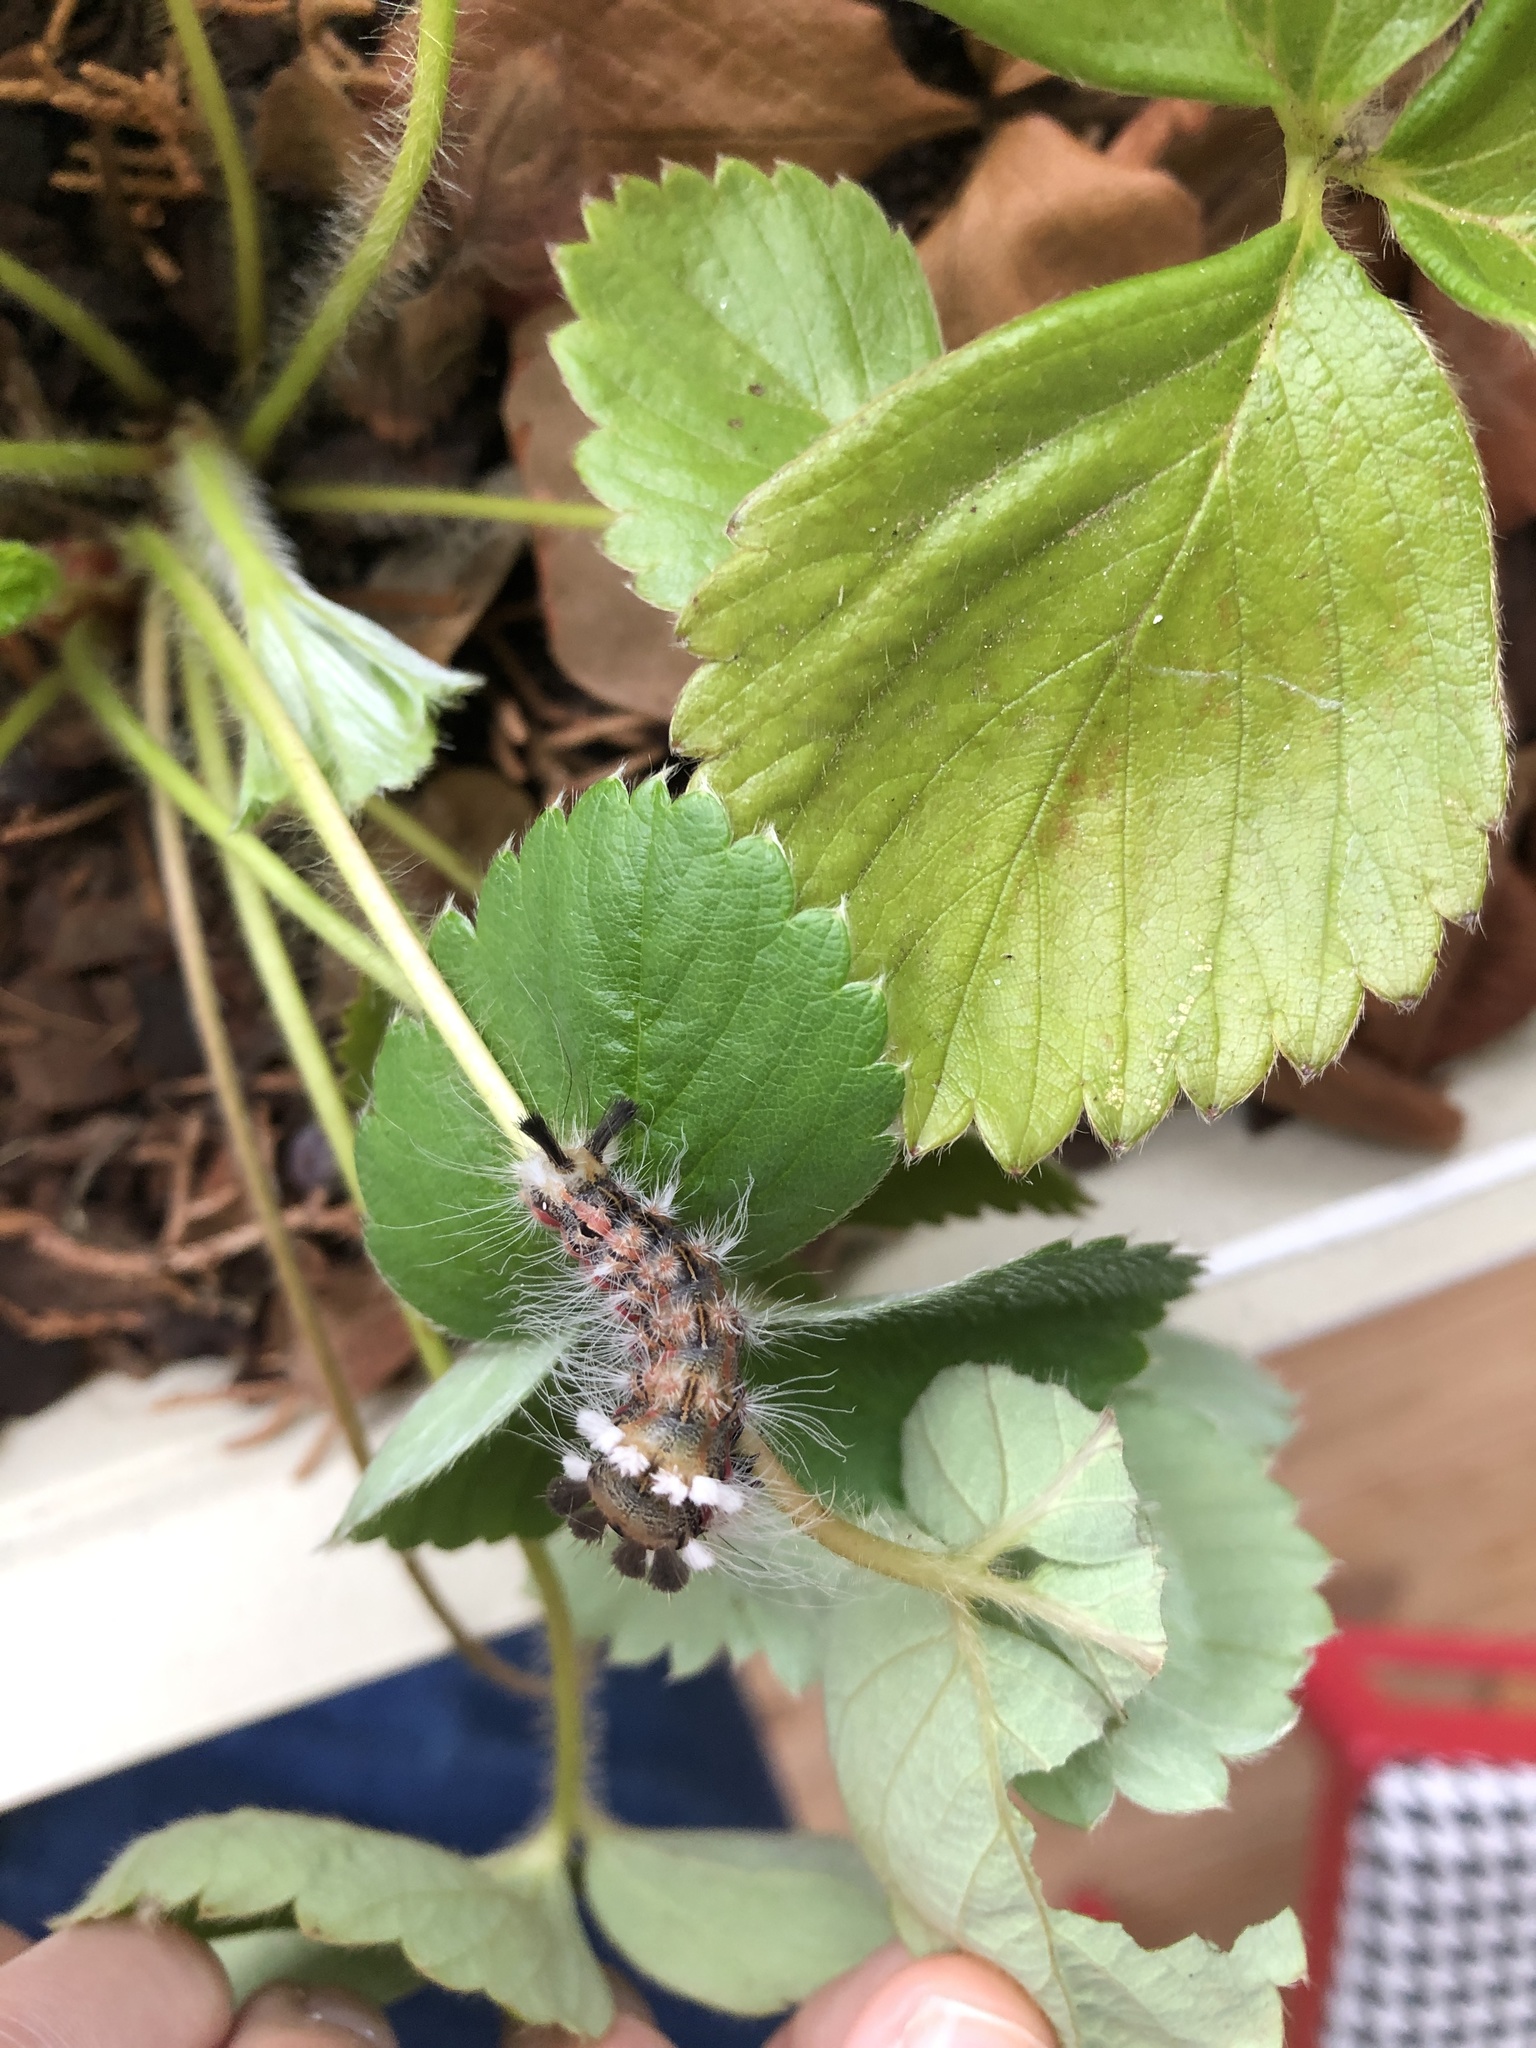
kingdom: Animalia
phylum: Arthropoda
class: Insecta
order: Lepidoptera
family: Noctuidae
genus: Acronicta
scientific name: Acronicta impleta
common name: Powdered dagger
